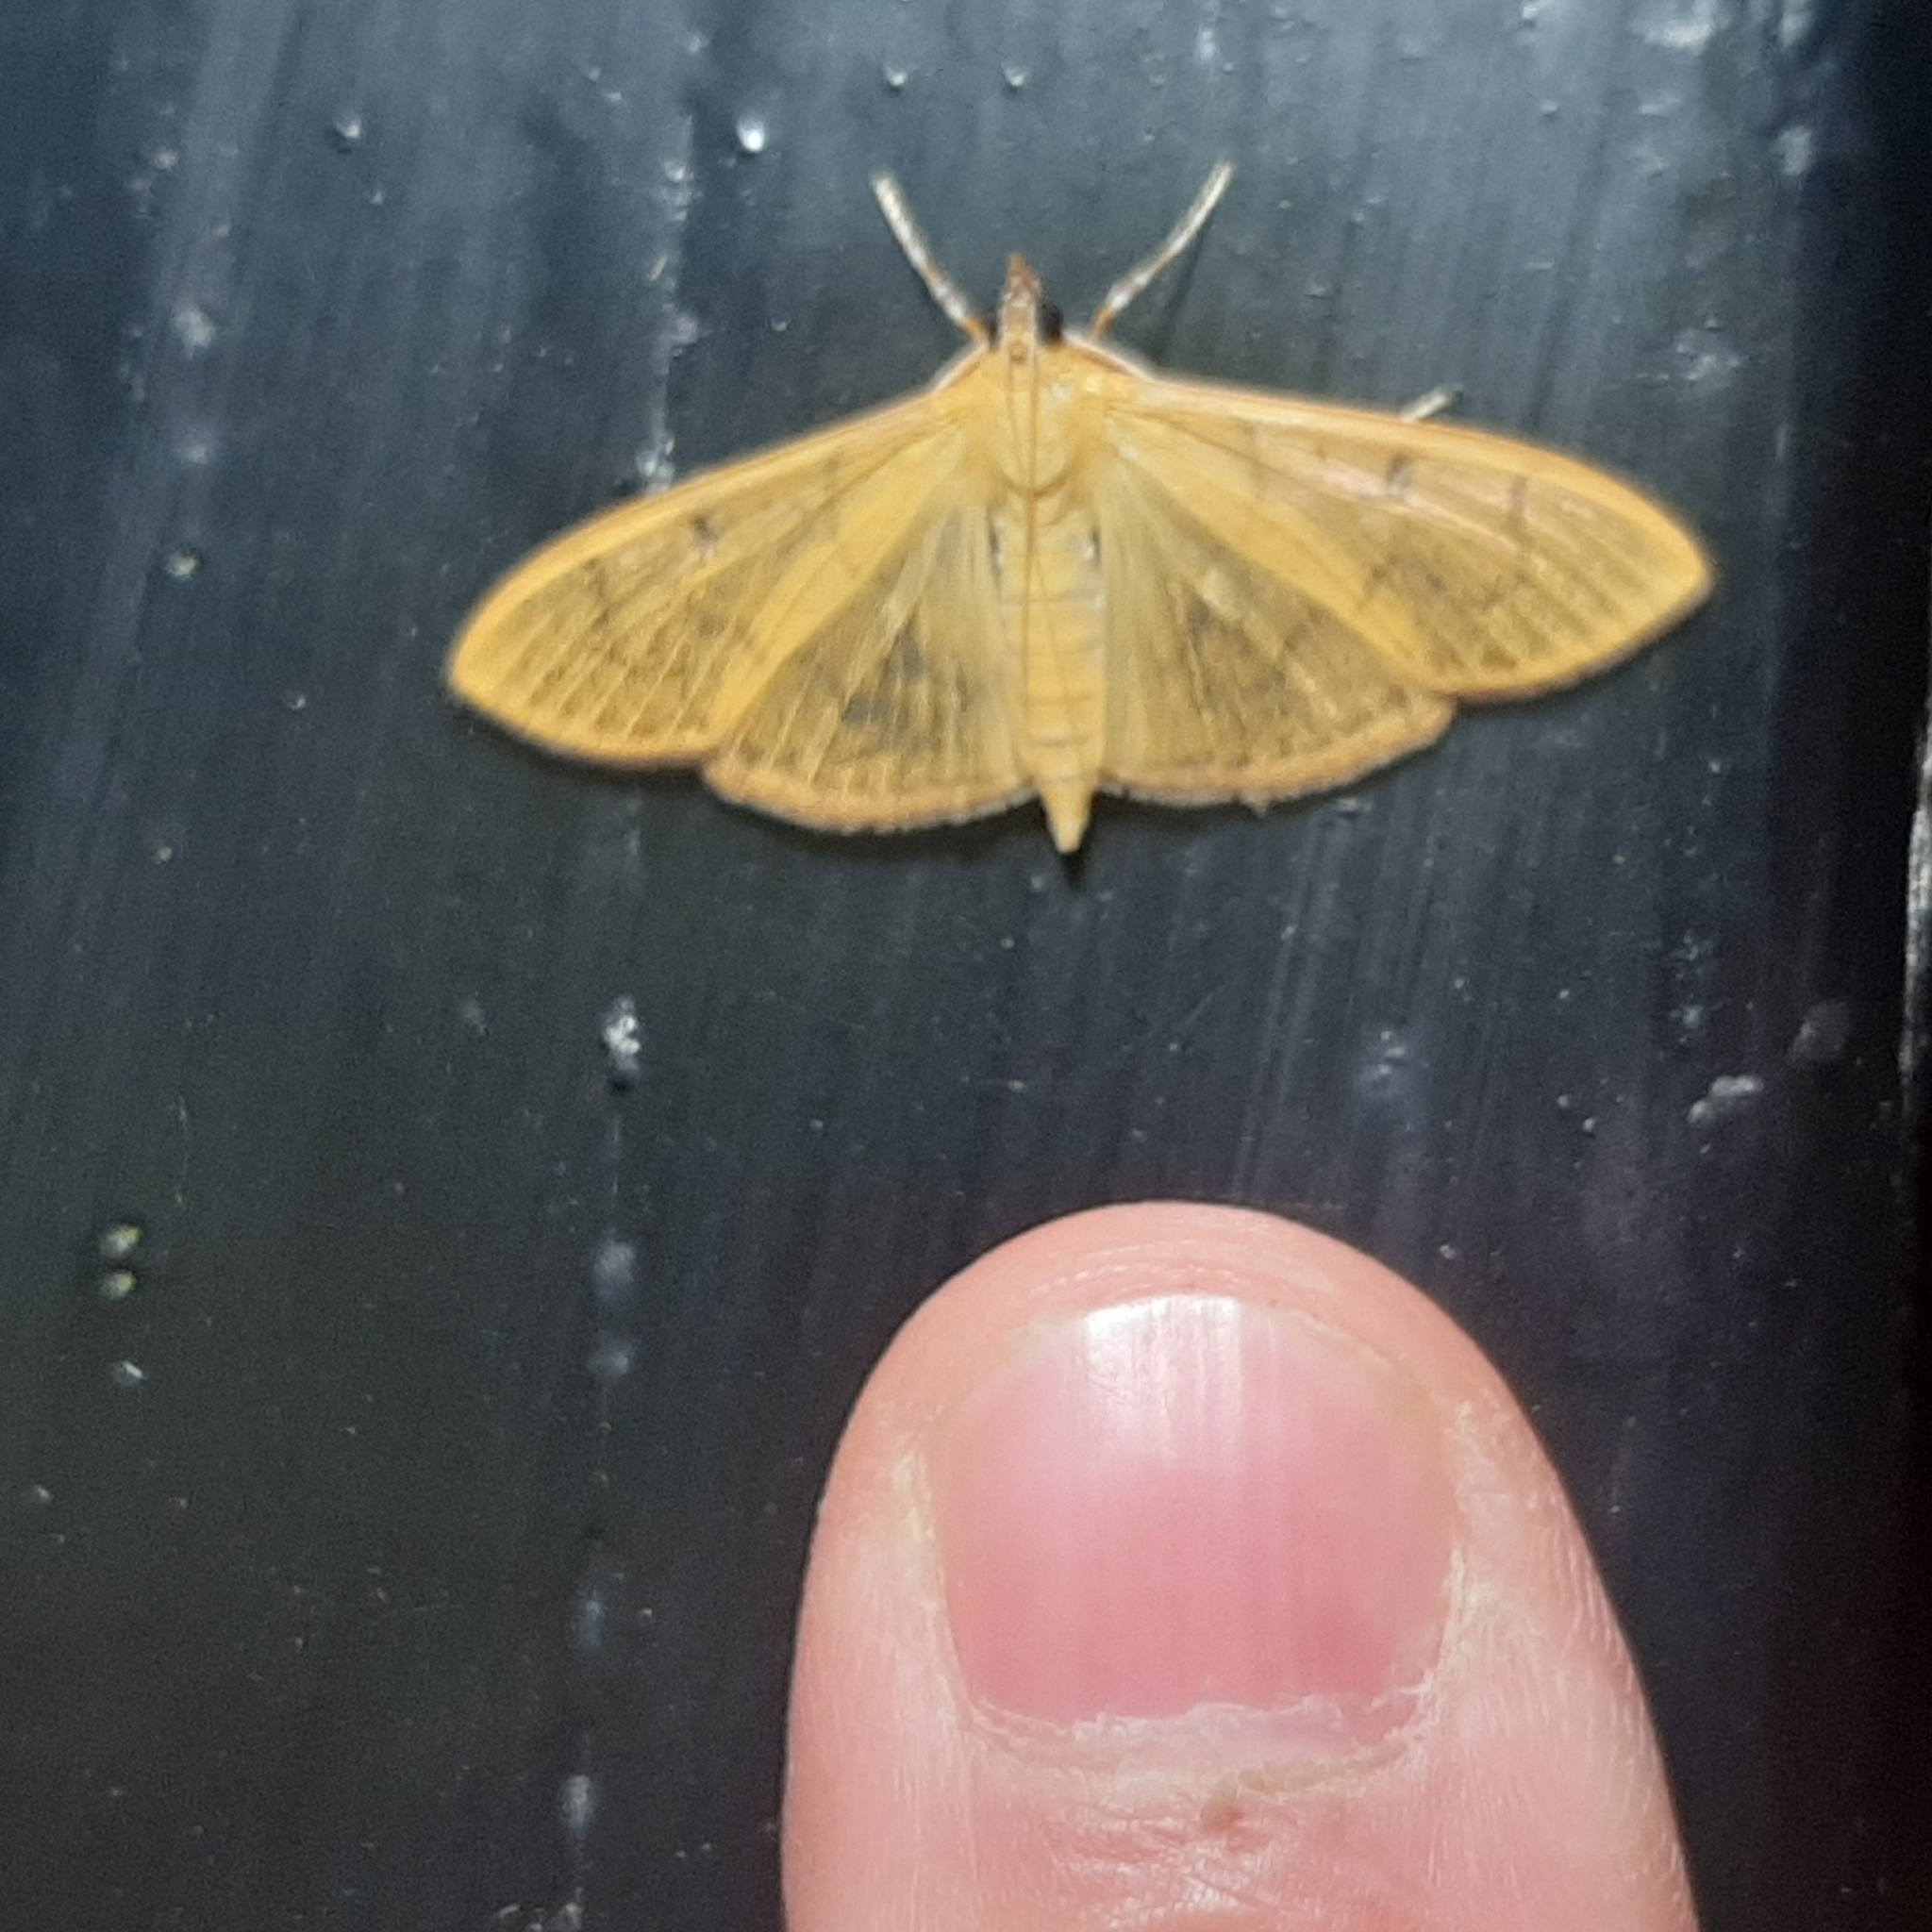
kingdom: Animalia
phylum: Arthropoda
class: Insecta
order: Lepidoptera
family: Crambidae
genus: Condylorrhiza
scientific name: Condylorrhiza vestigialis
